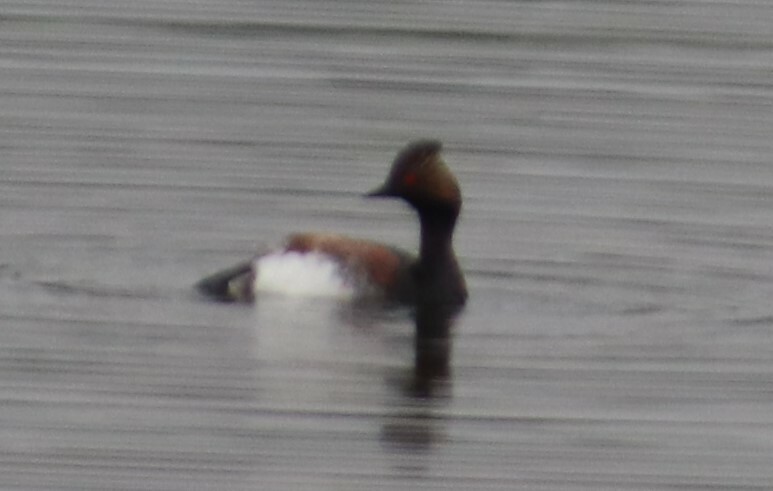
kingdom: Animalia
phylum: Chordata
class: Aves
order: Podicipediformes
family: Podicipedidae
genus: Podiceps
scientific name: Podiceps nigricollis
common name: Black-necked grebe
